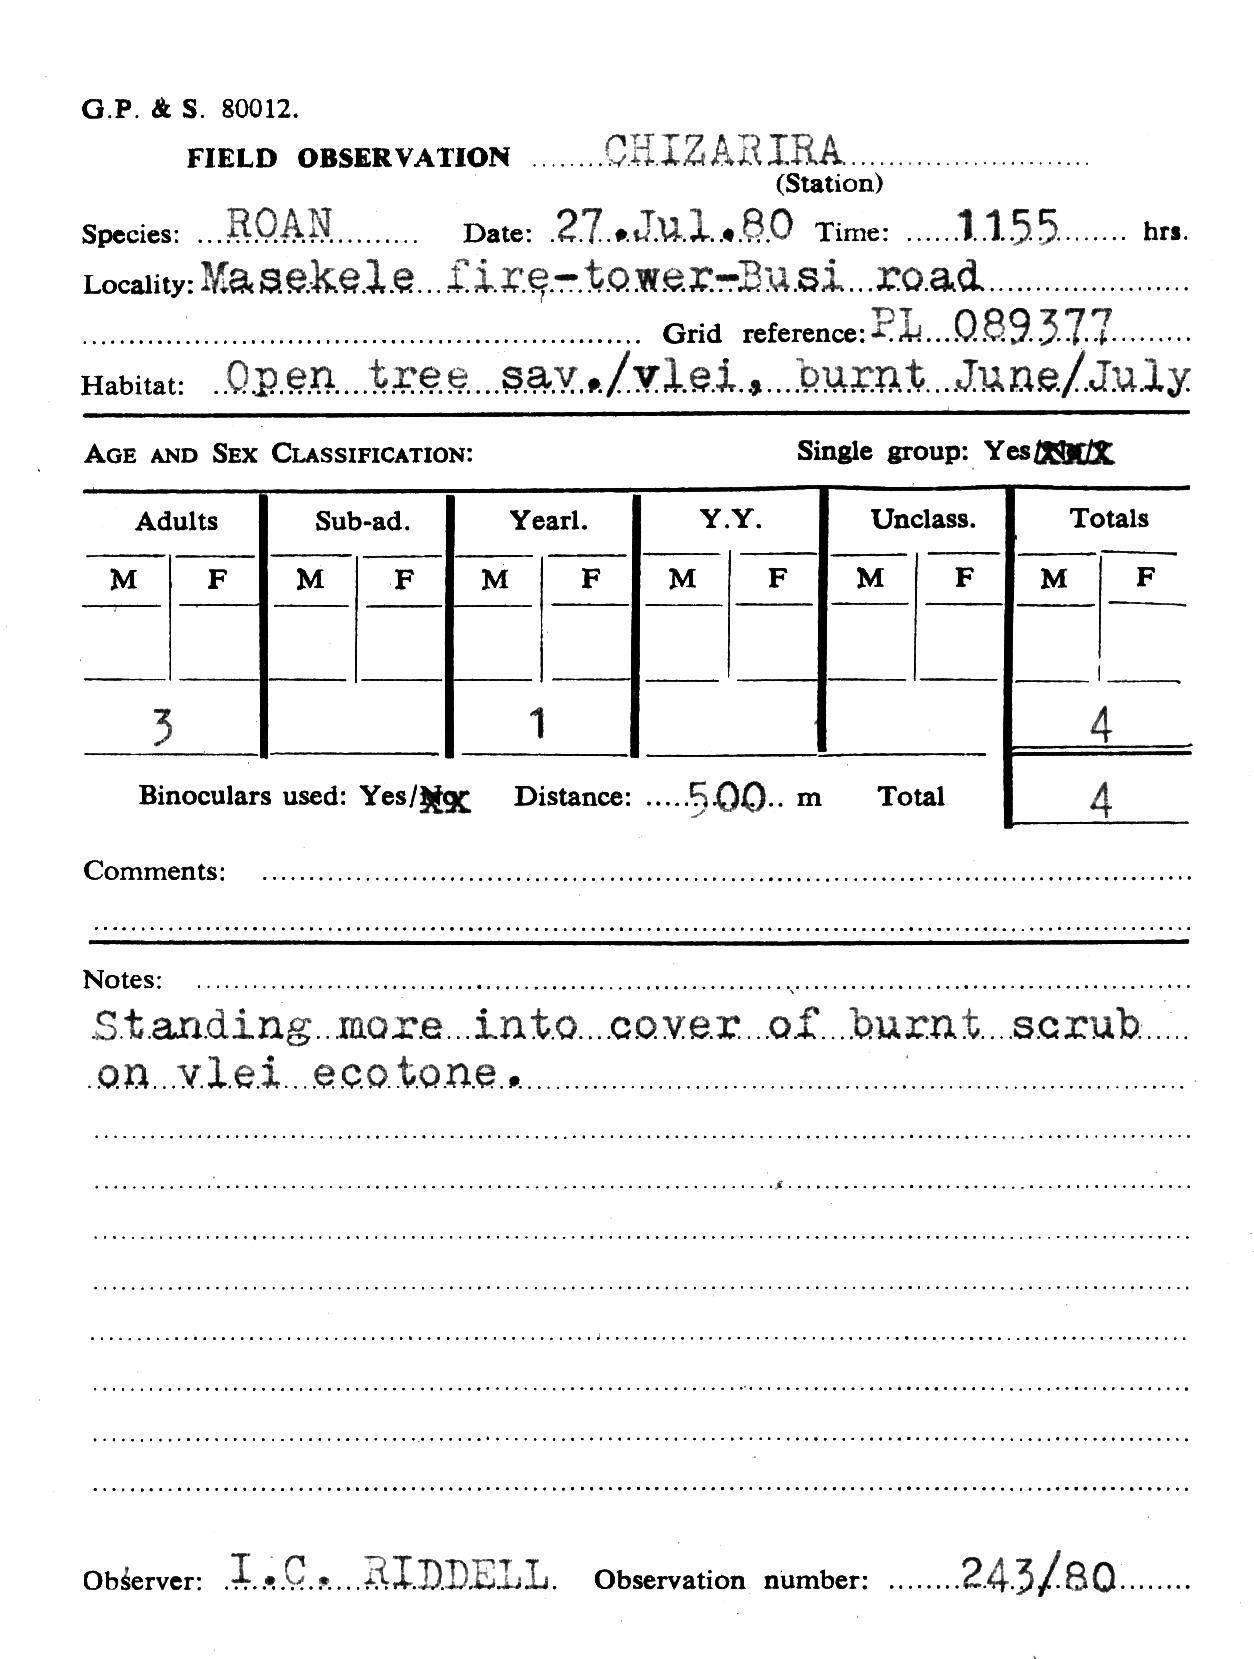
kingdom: Animalia
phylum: Chordata
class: Mammalia
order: Artiodactyla
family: Bovidae
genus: Hippotragus
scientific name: Hippotragus equinus
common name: Roan antelope
